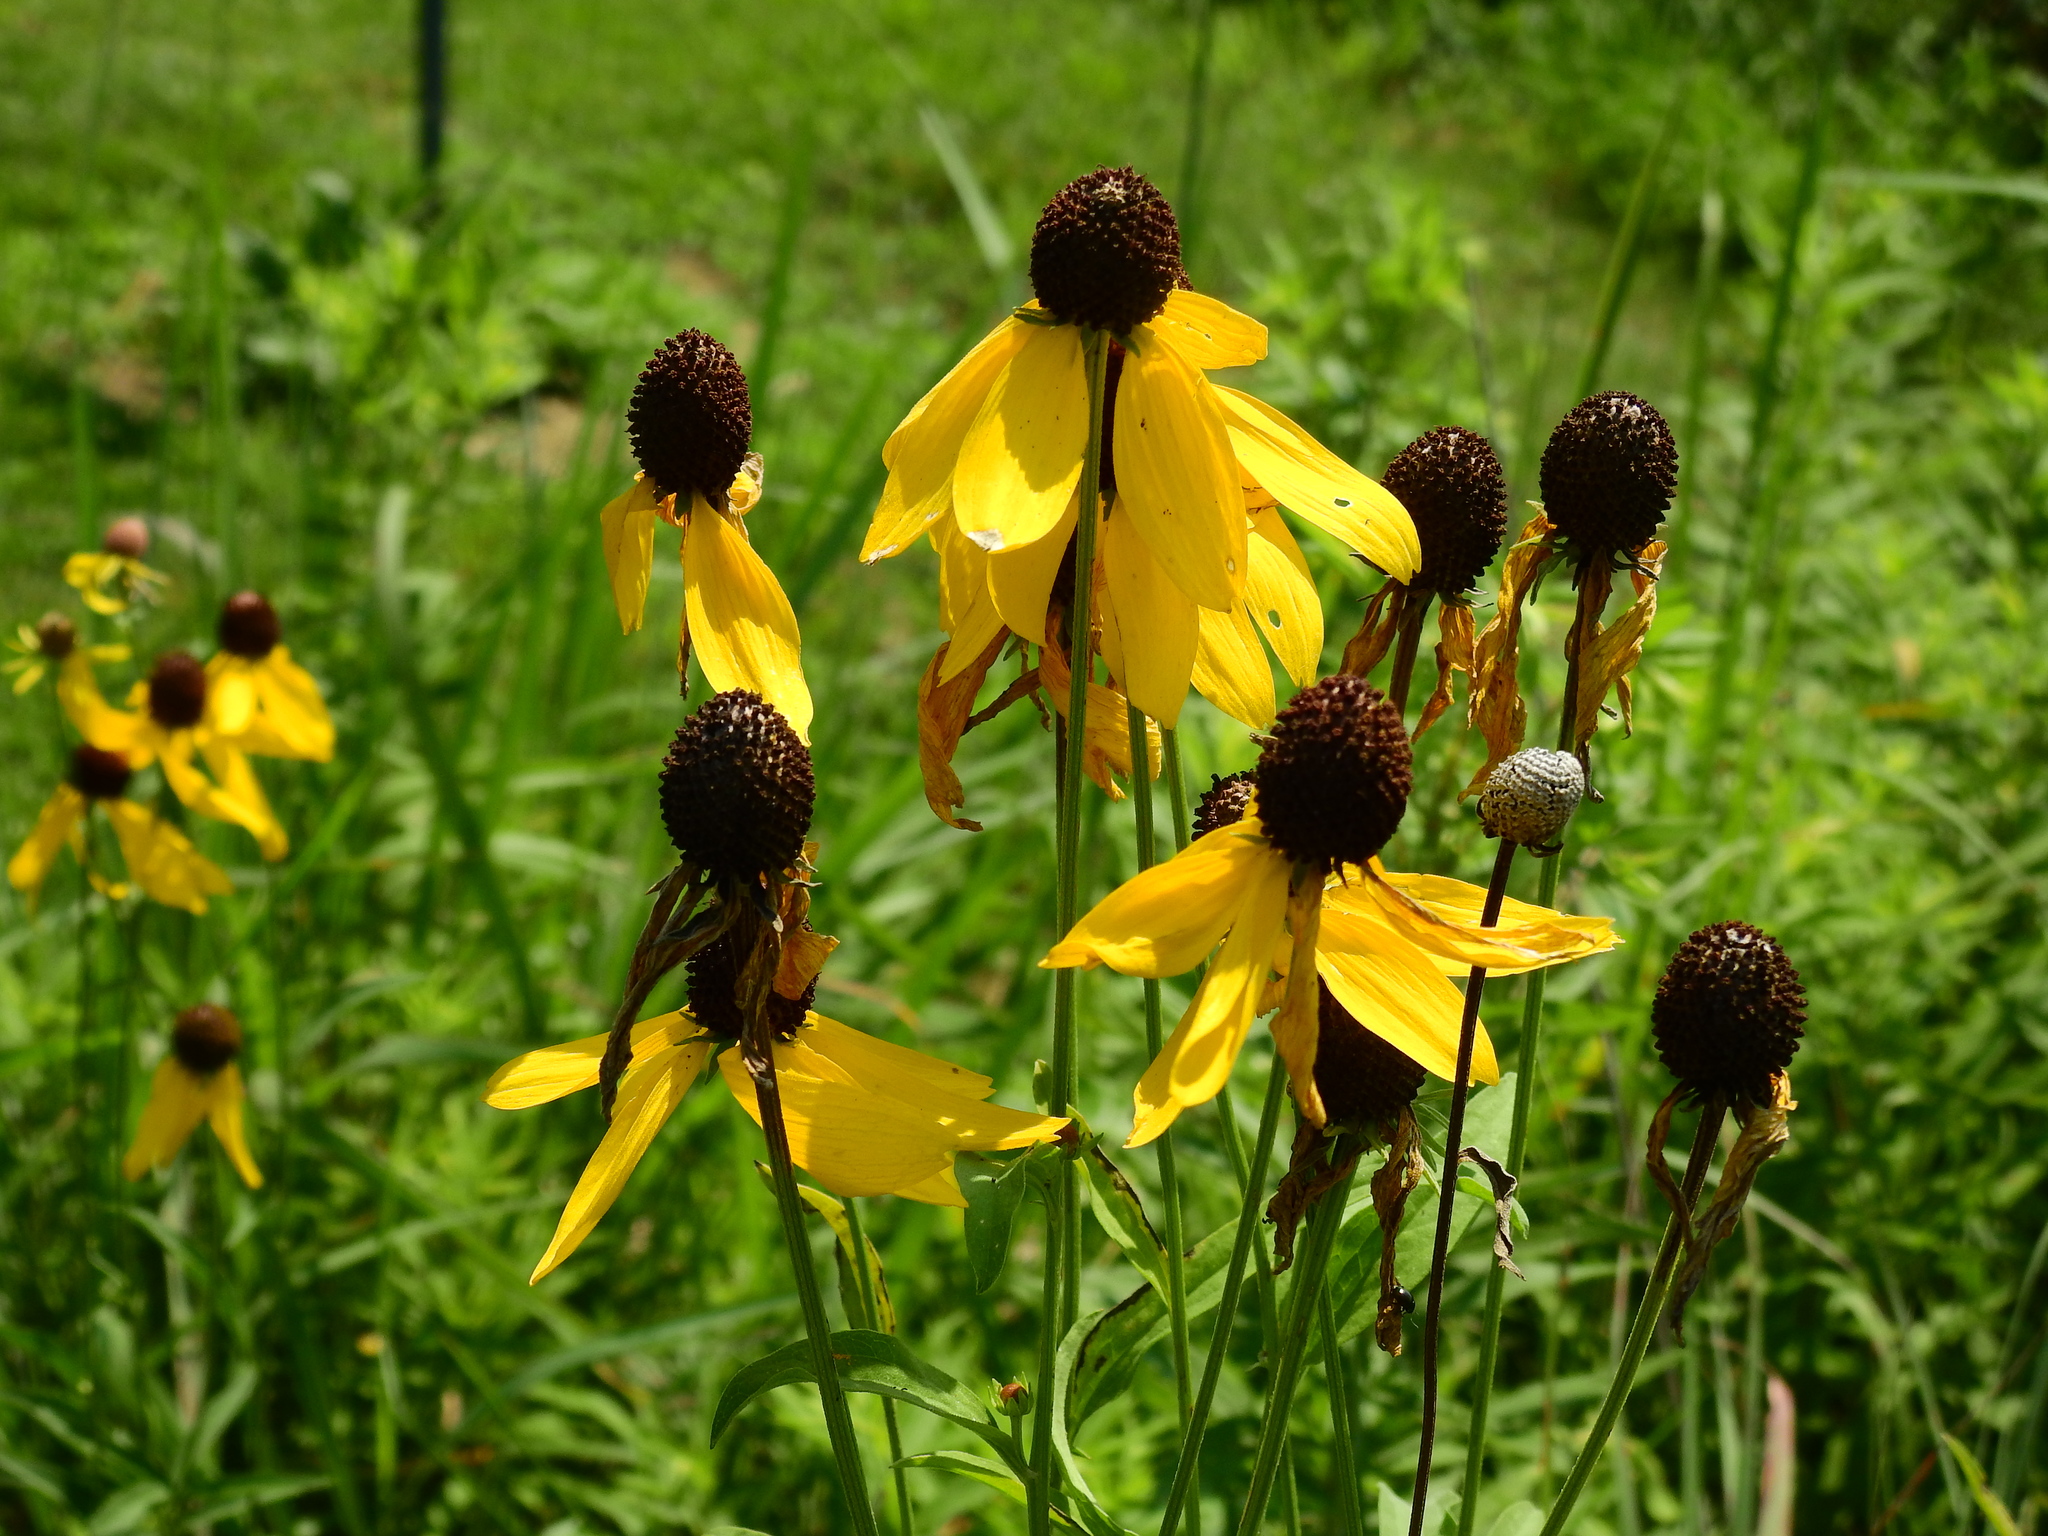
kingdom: Plantae
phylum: Tracheophyta
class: Magnoliopsida
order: Asterales
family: Asteraceae
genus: Ratibida
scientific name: Ratibida pinnata
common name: Drooping prairie-coneflower
